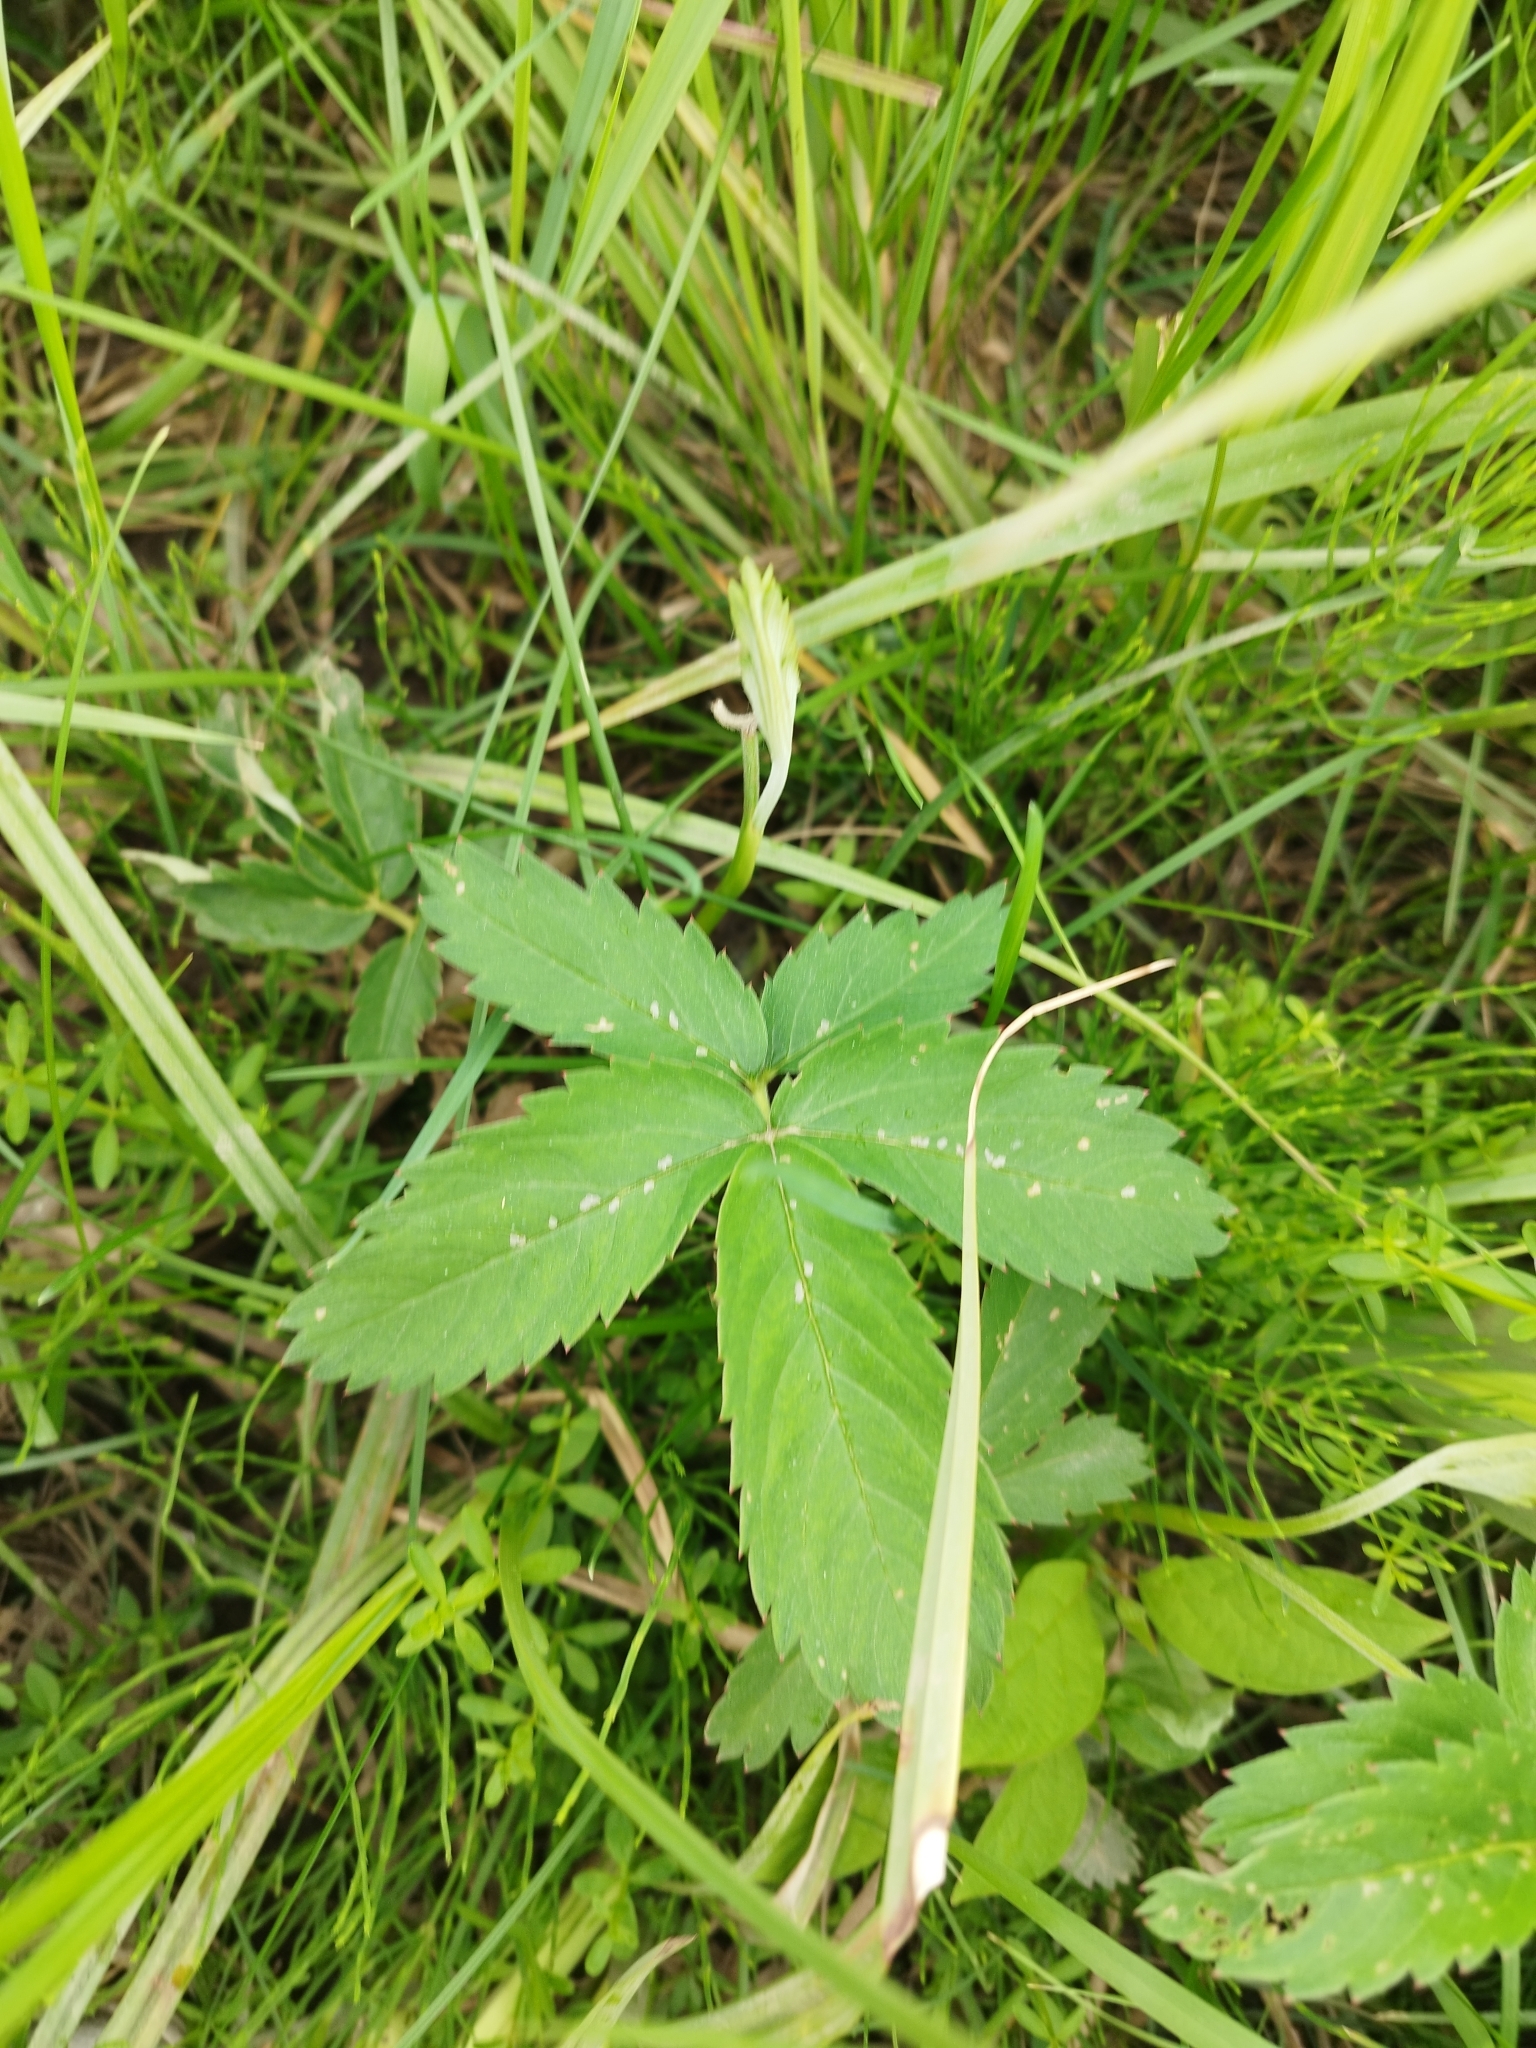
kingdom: Plantae
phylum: Tracheophyta
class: Magnoliopsida
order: Rosales
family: Rosaceae
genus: Comarum
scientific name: Comarum palustre
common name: Marsh cinquefoil
